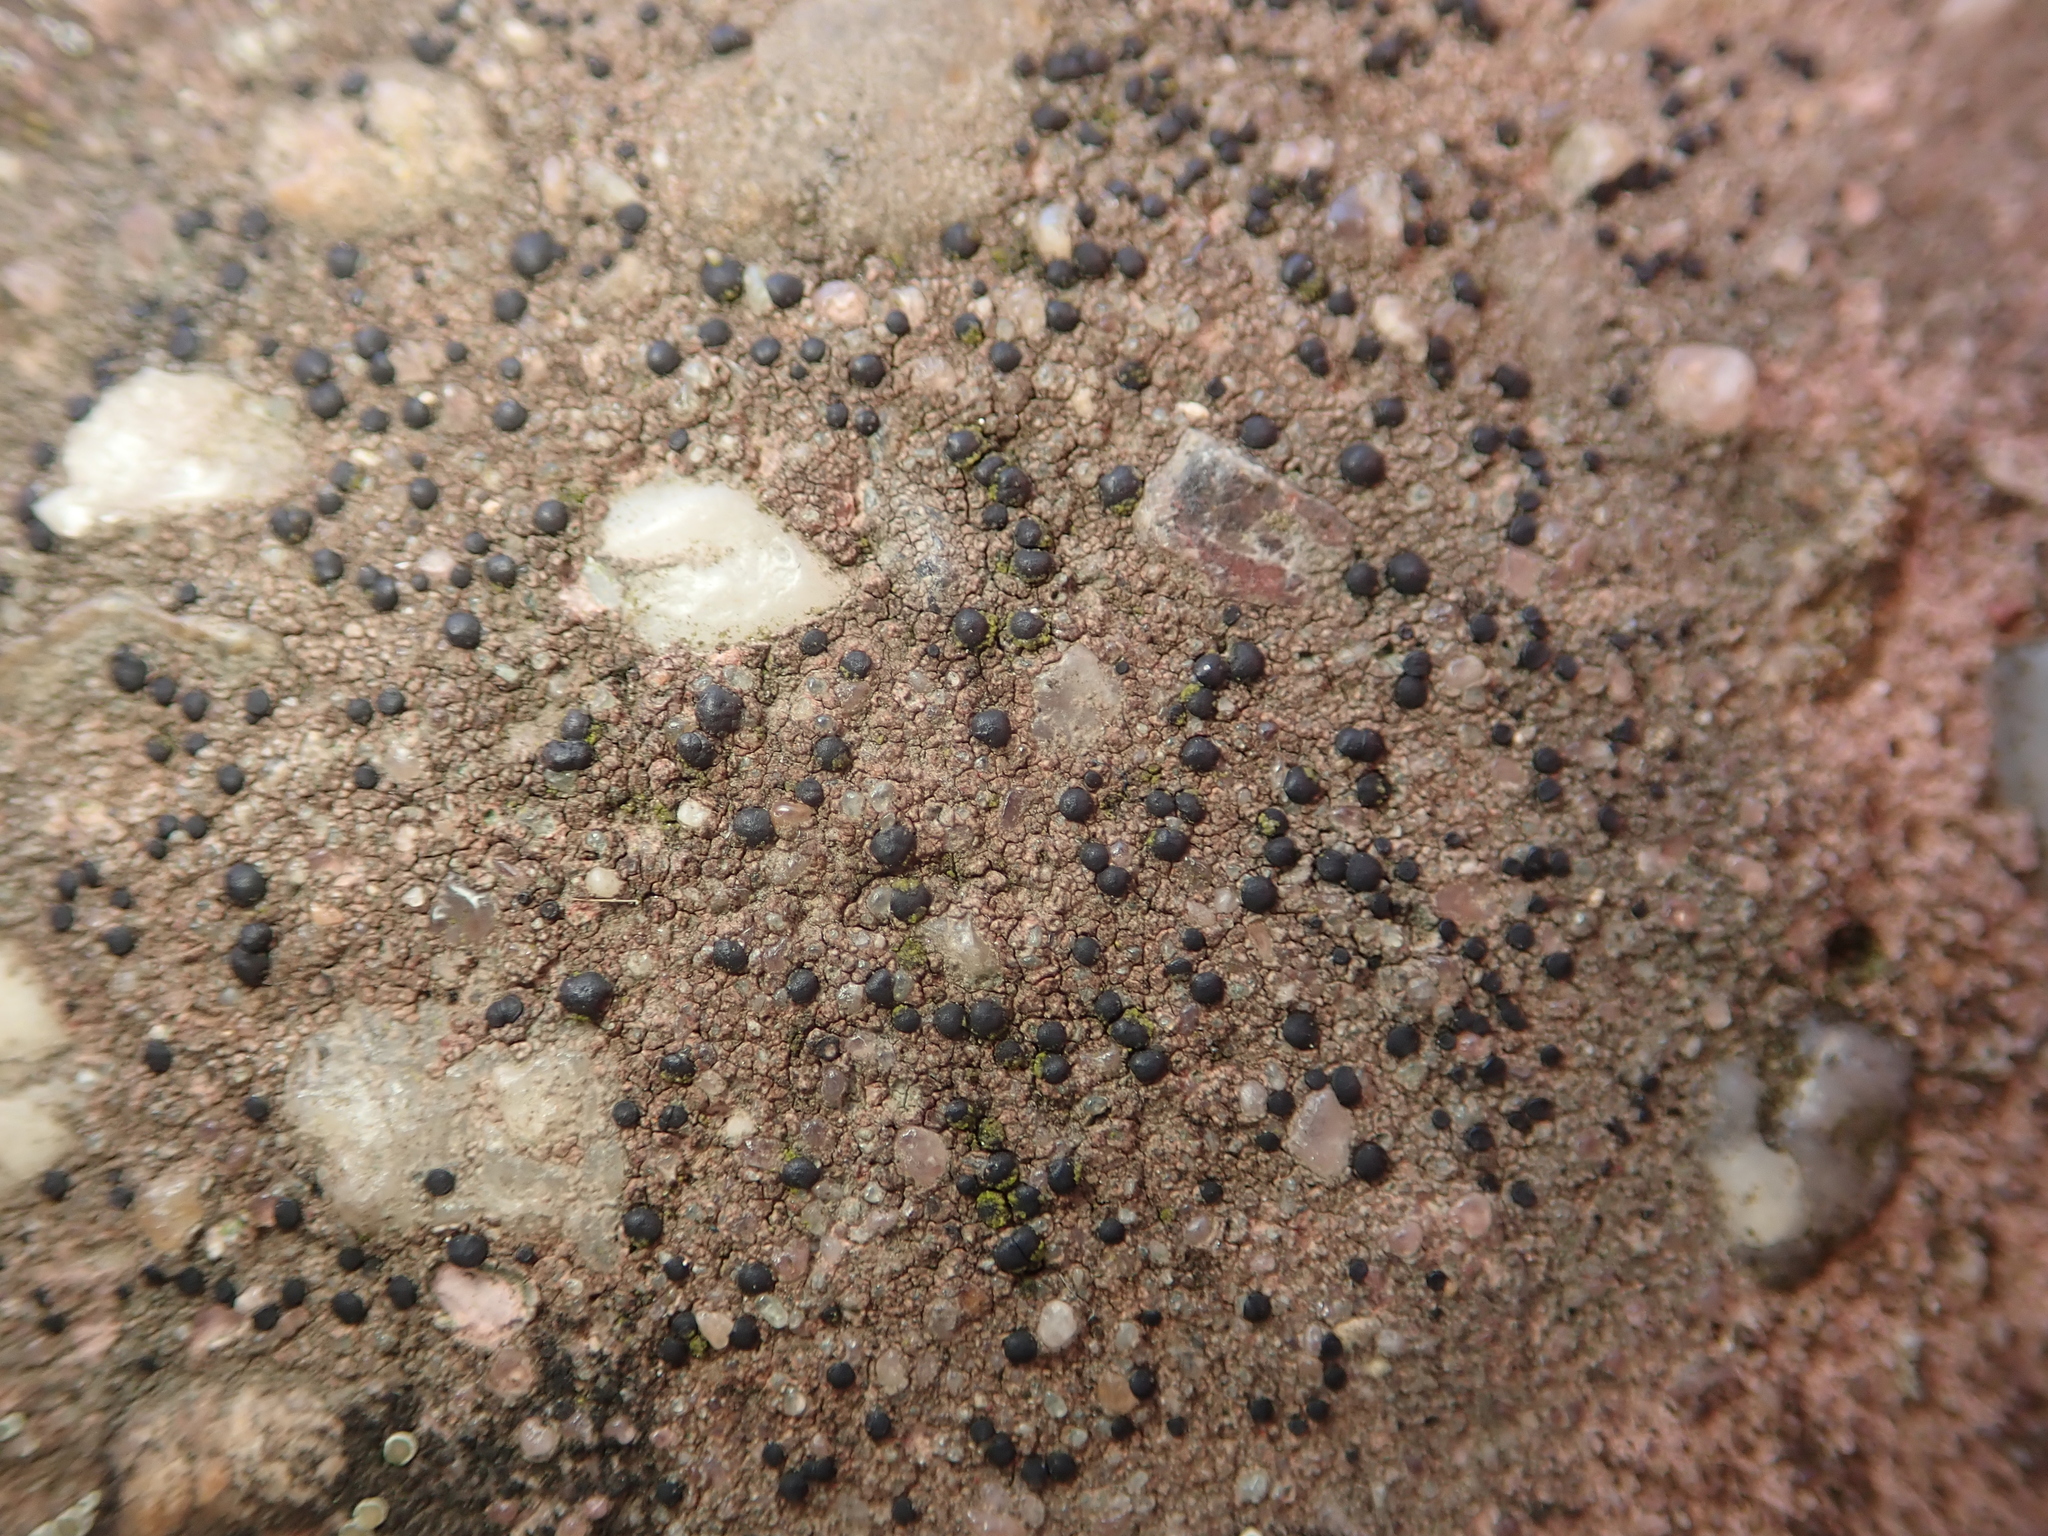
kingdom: Fungi
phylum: Ascomycota
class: Lecanoromycetes
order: Lecanorales
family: Lecanoraceae
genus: Lecidella
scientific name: Lecidella stigmatea
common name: Limestone disc lichen
